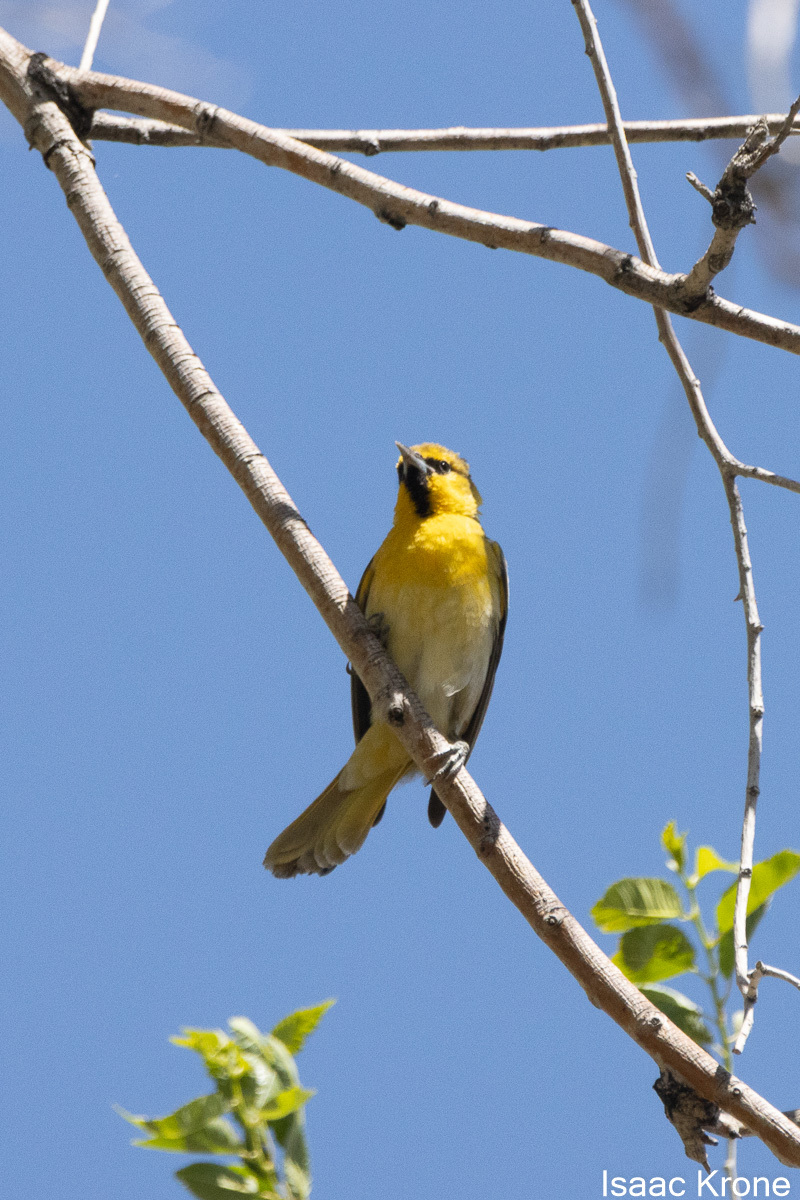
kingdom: Animalia
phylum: Chordata
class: Aves
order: Passeriformes
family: Icteridae
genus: Icterus
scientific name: Icterus bullockii
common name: Bullock's oriole
